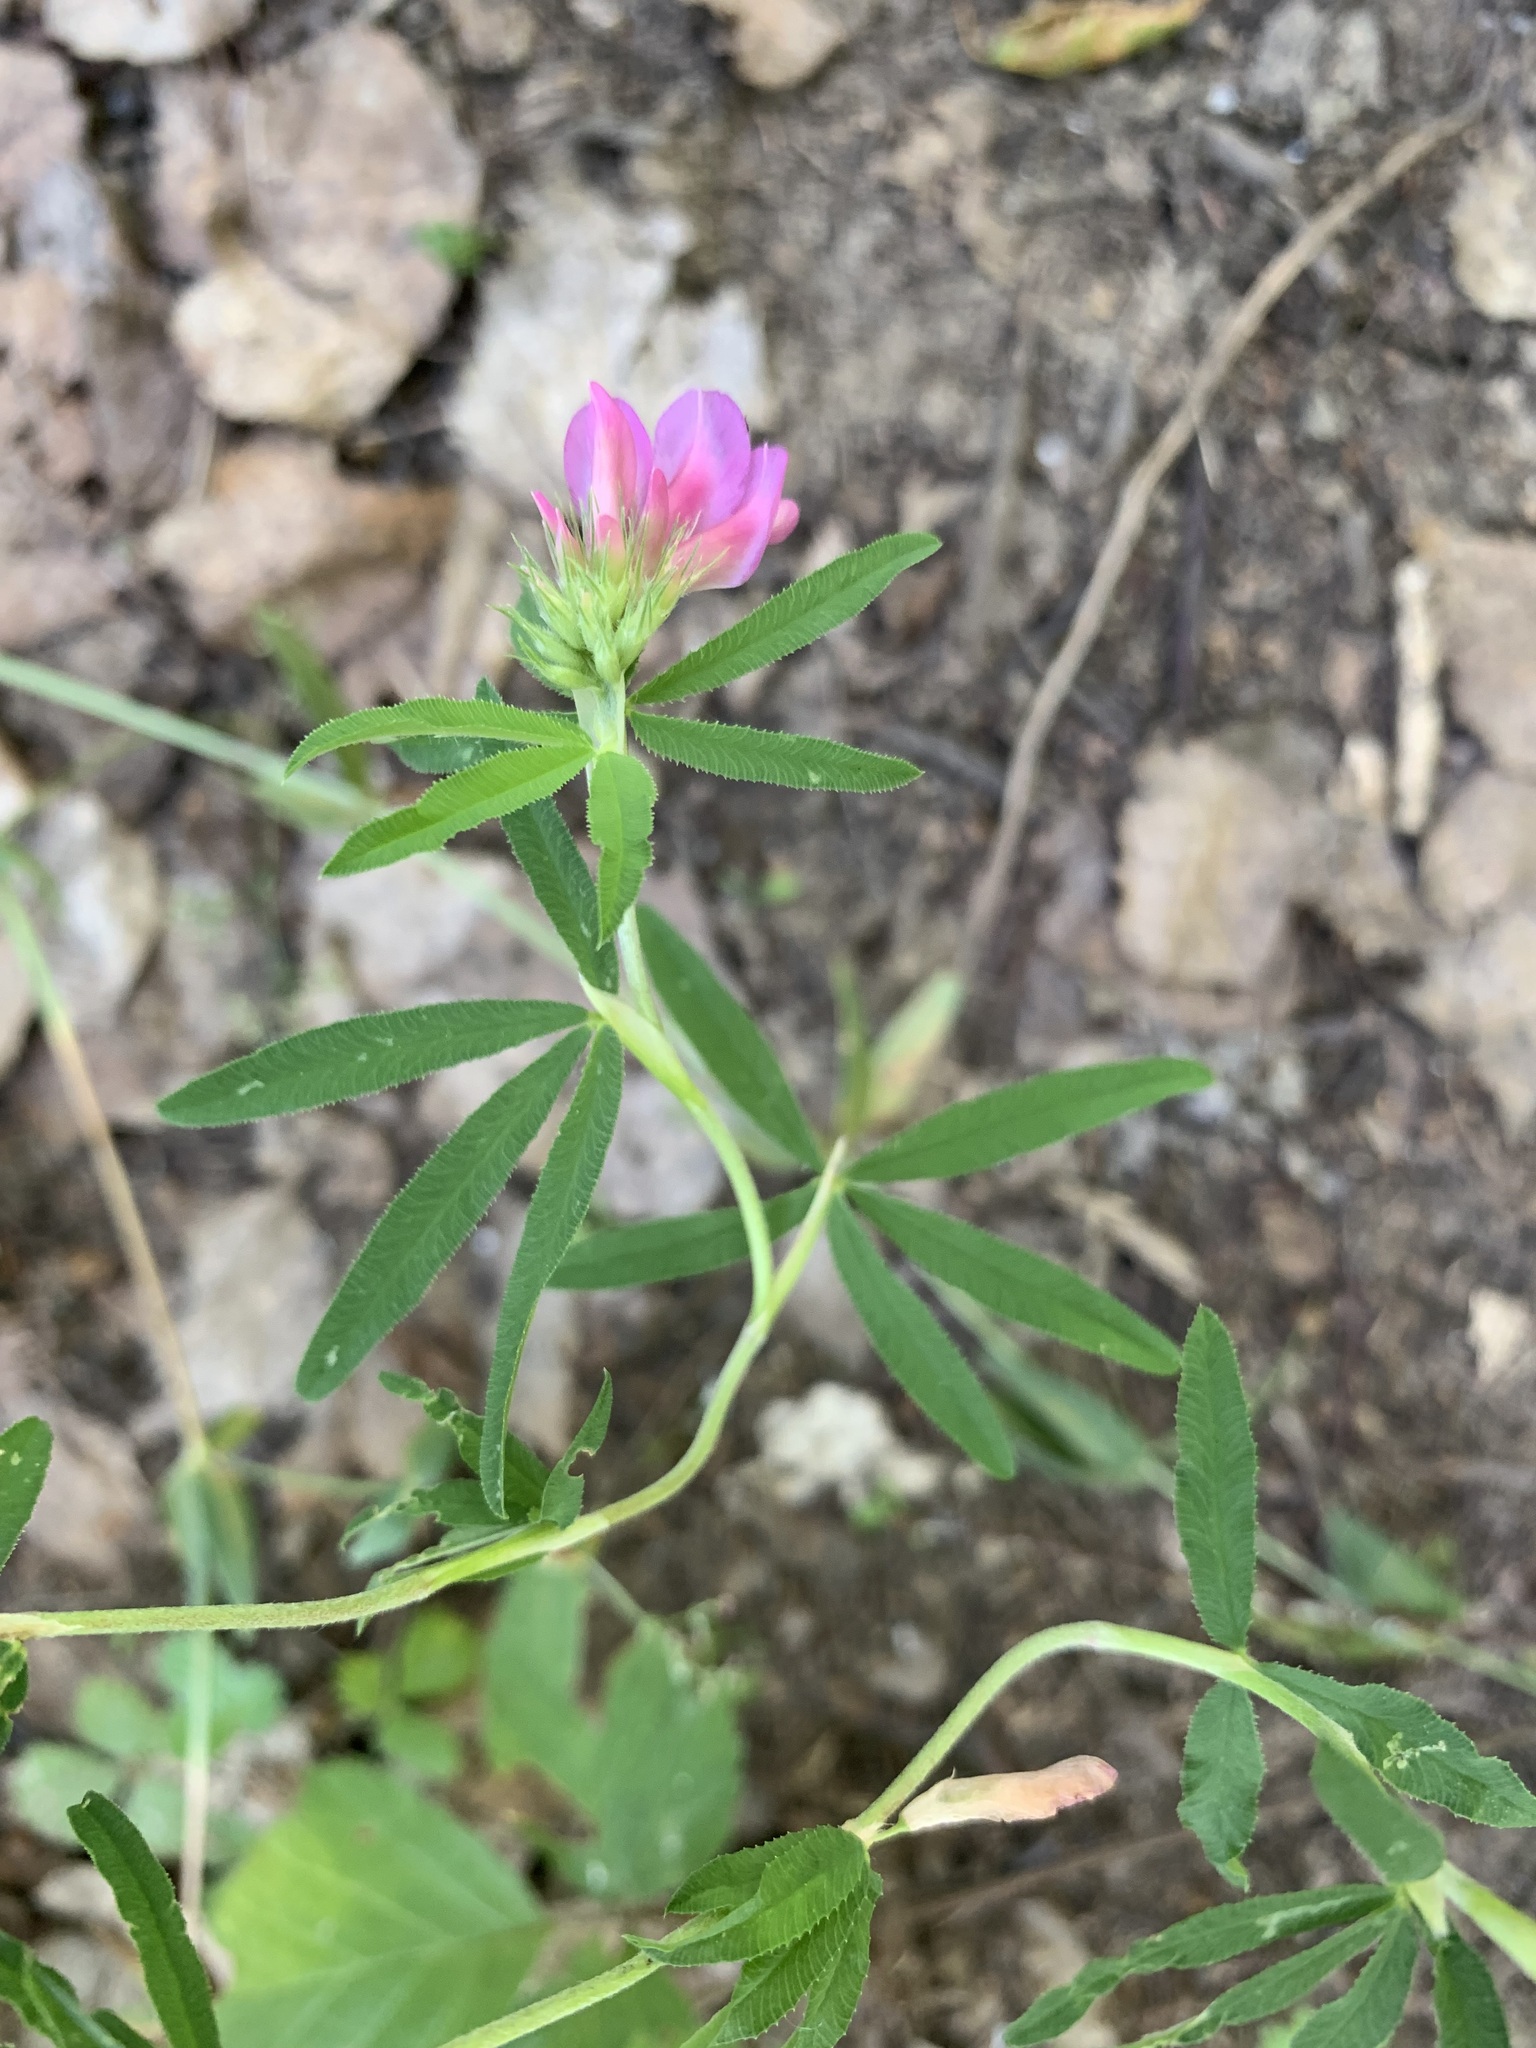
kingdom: Plantae
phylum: Tracheophyta
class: Magnoliopsida
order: Fabales
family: Fabaceae
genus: Trifolium
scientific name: Trifolium lupinaster
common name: Lupine clover
